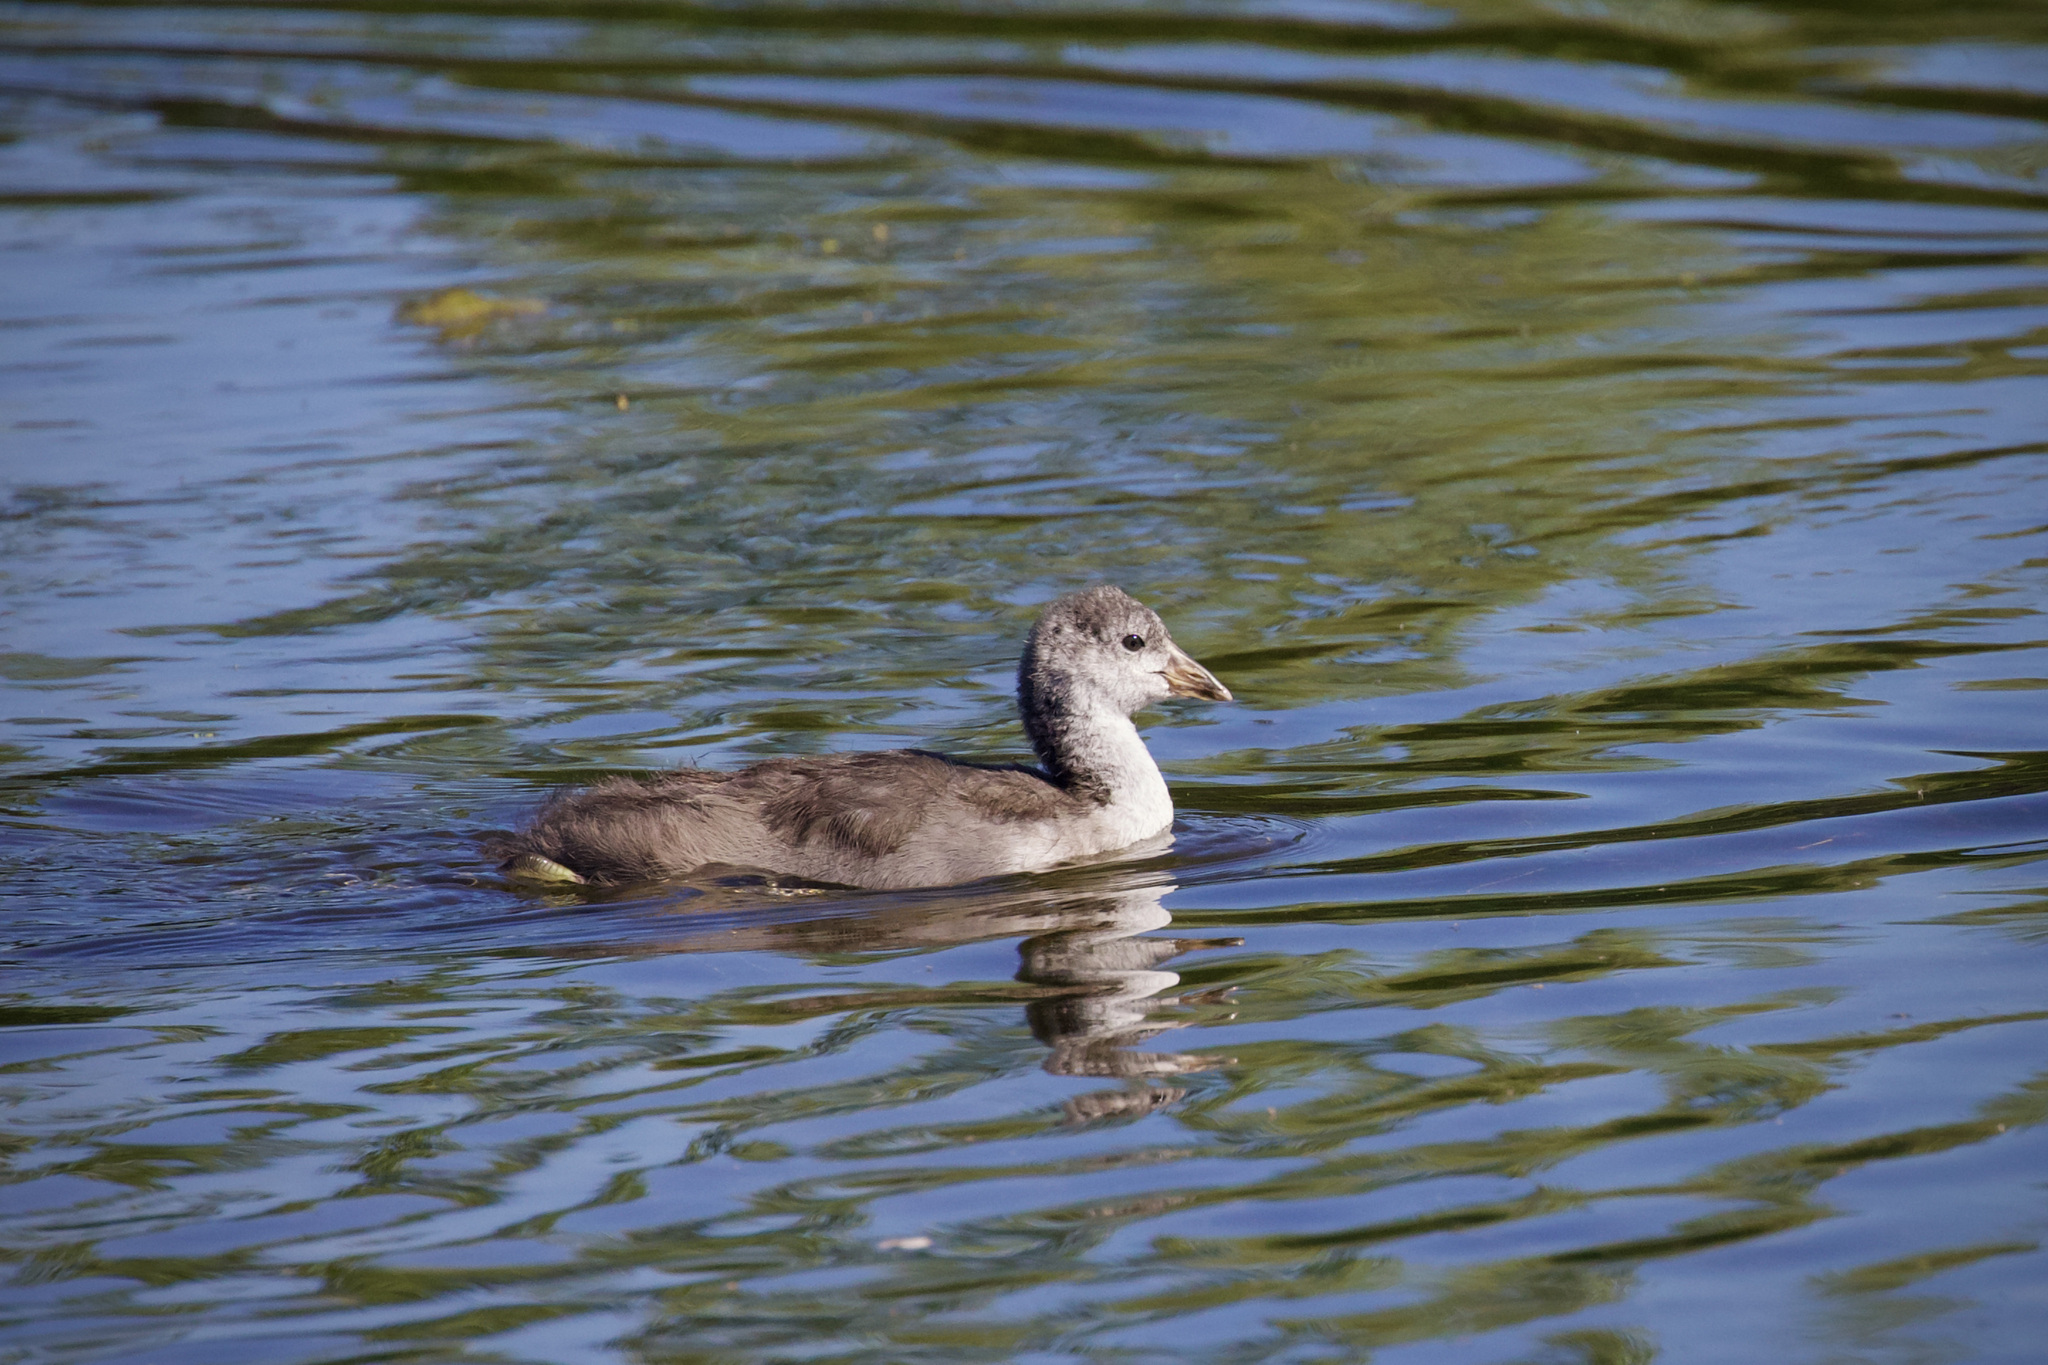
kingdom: Animalia
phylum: Chordata
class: Aves
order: Gruiformes
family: Rallidae
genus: Fulica
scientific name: Fulica americana
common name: American coot
